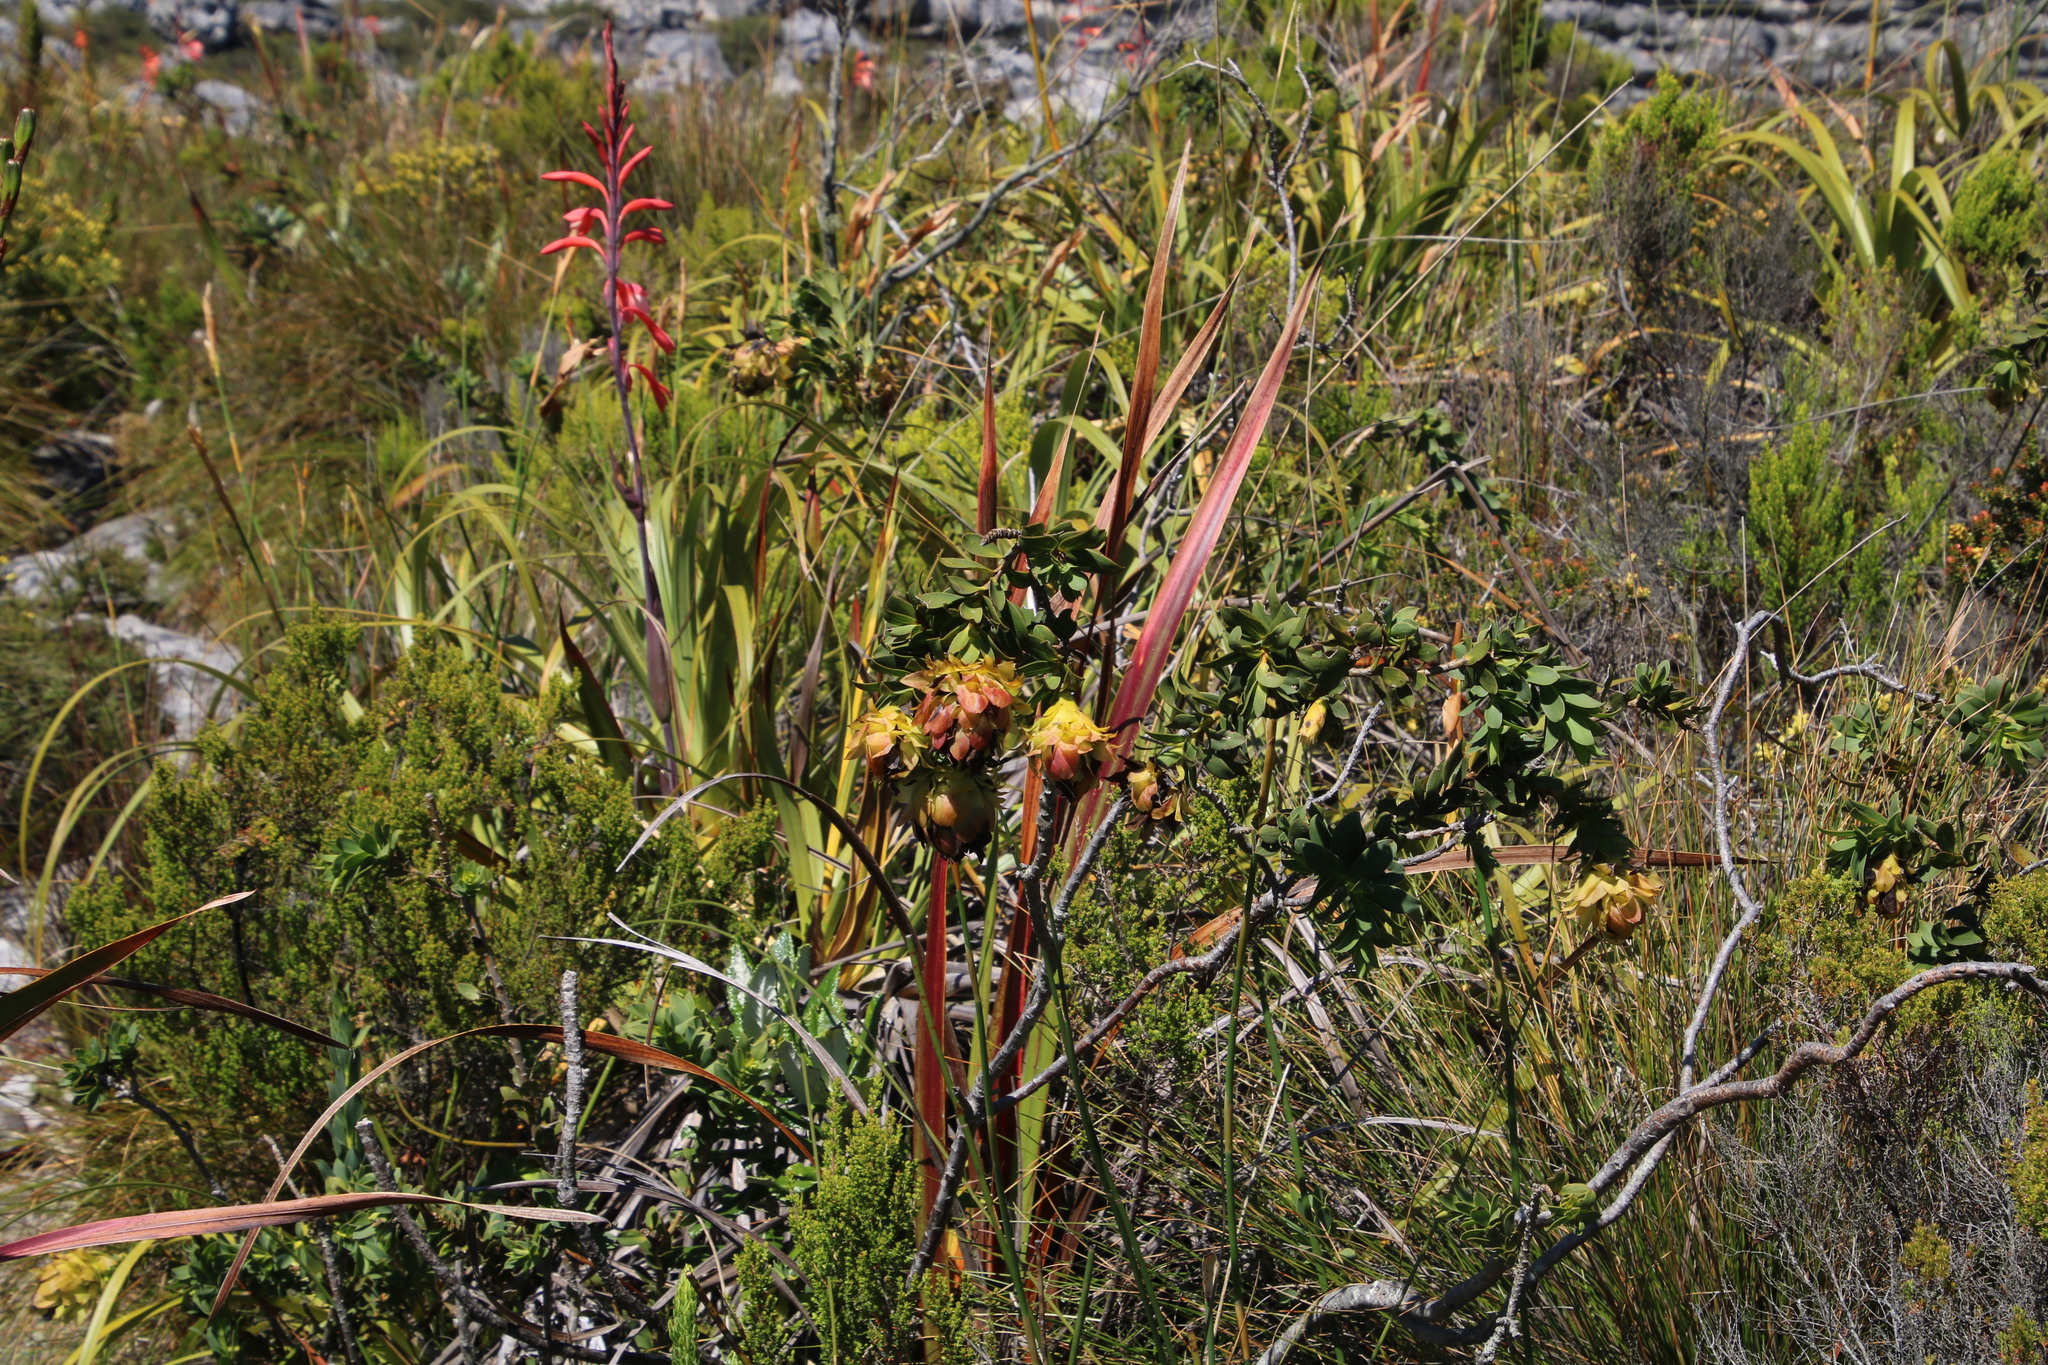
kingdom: Plantae
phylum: Tracheophyta
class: Magnoliopsida
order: Fabales
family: Fabaceae
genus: Liparia
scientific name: Liparia splendens
